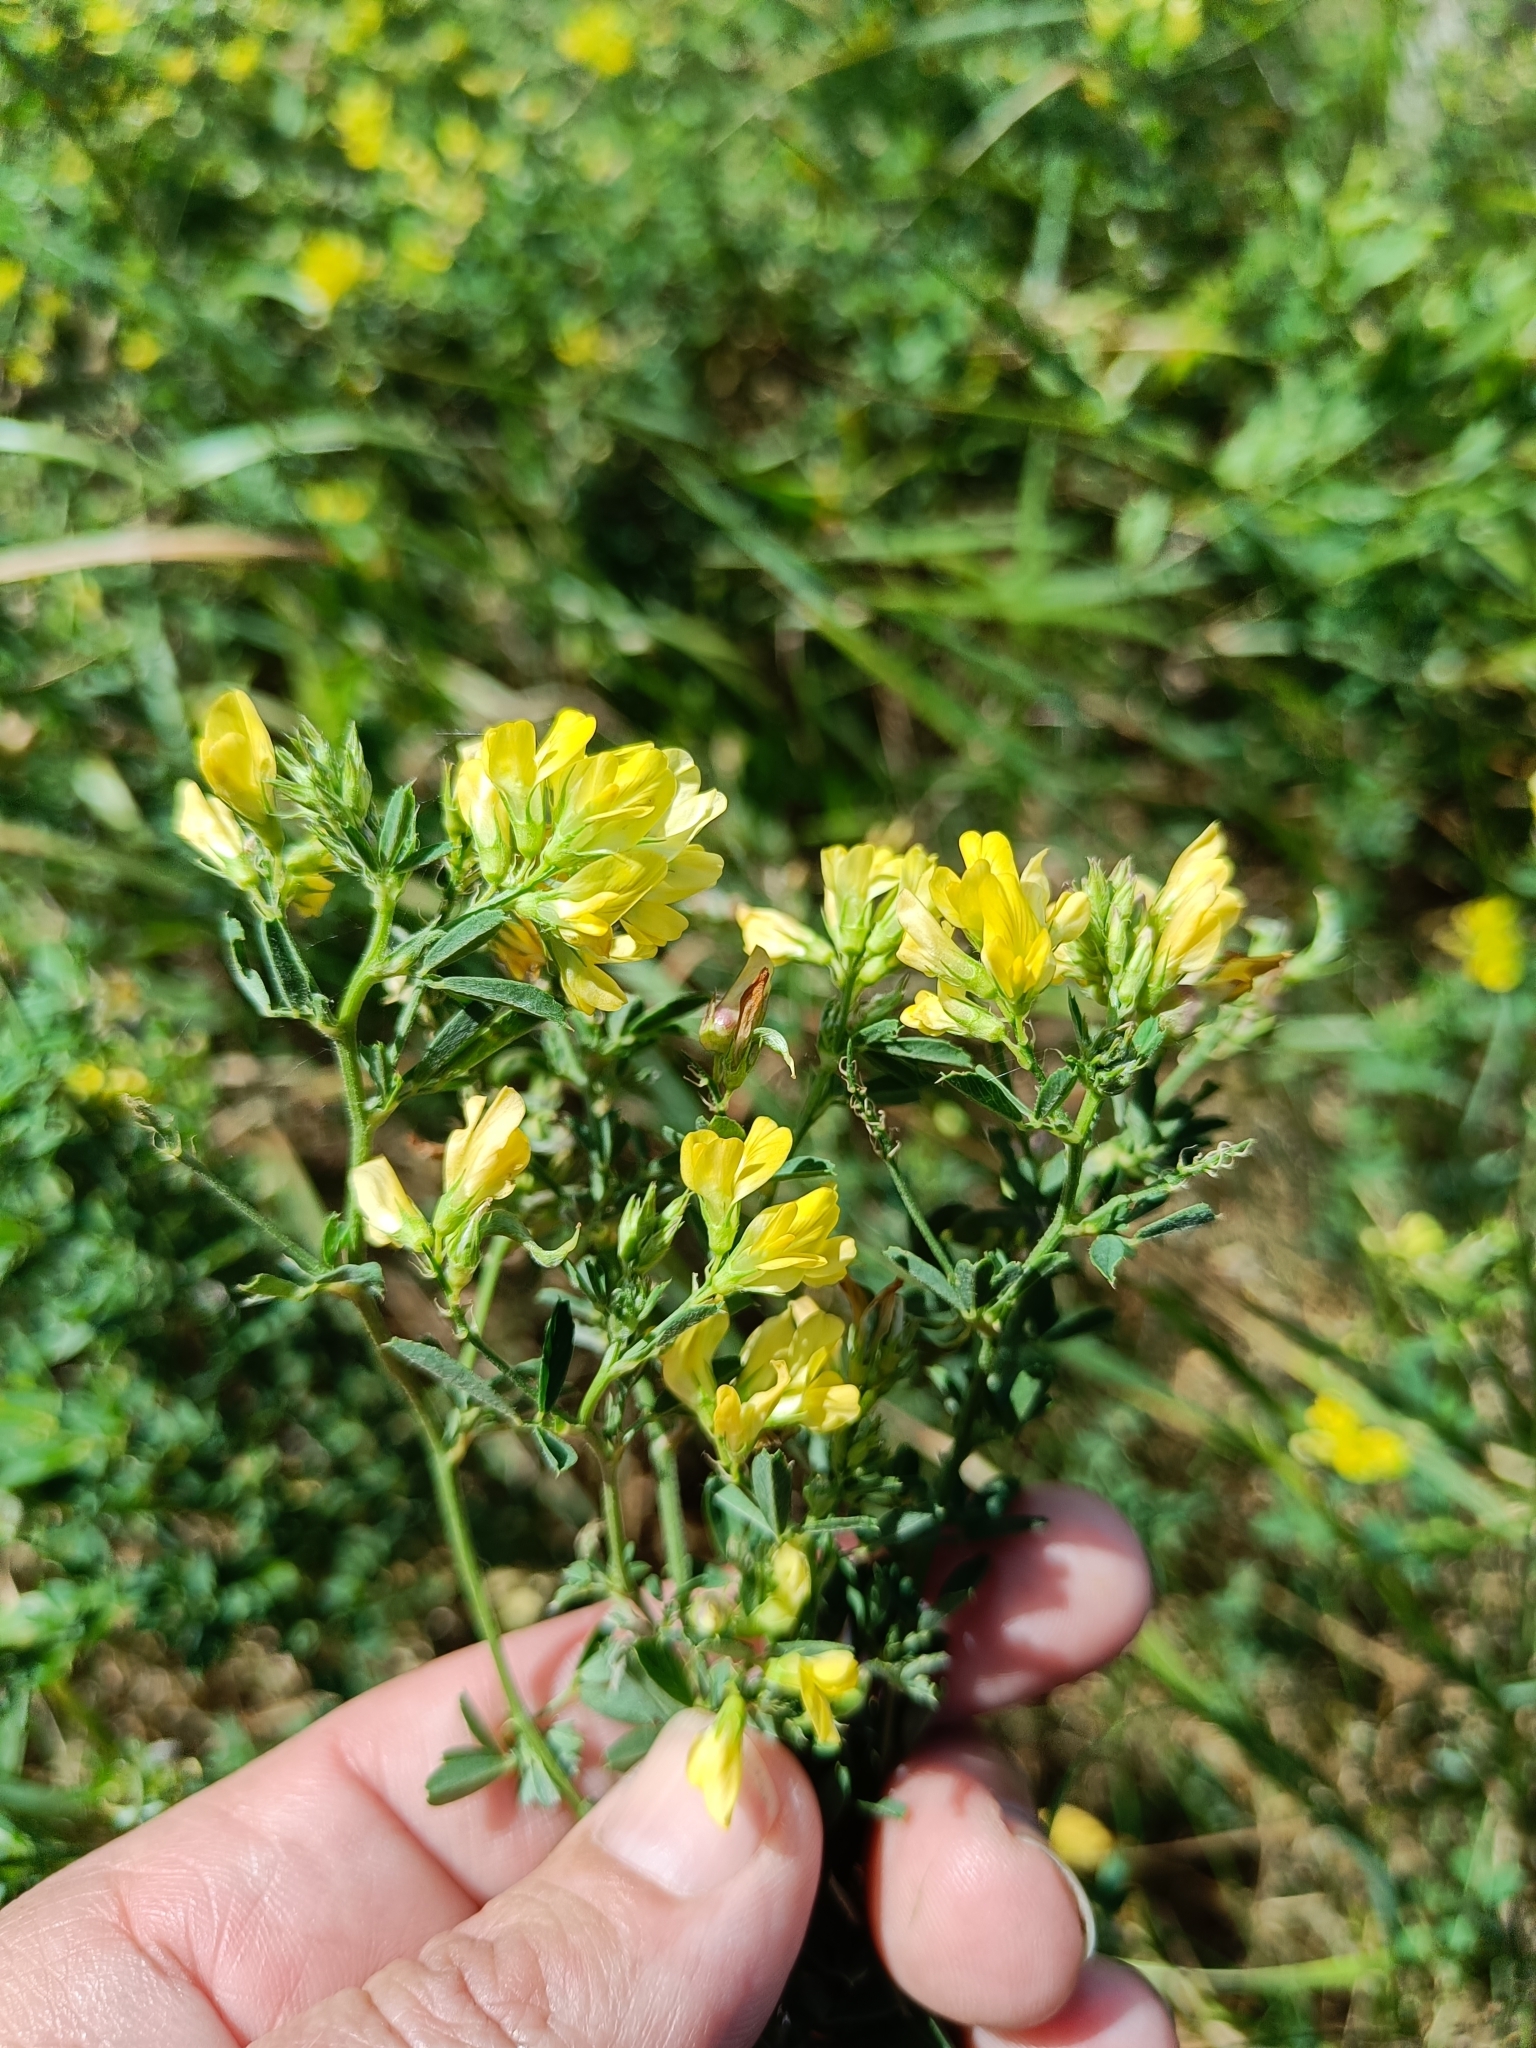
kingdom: Plantae
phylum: Tracheophyta
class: Magnoliopsida
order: Fabales
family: Fabaceae
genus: Medicago
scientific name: Medicago varia
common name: Sand lucerne
